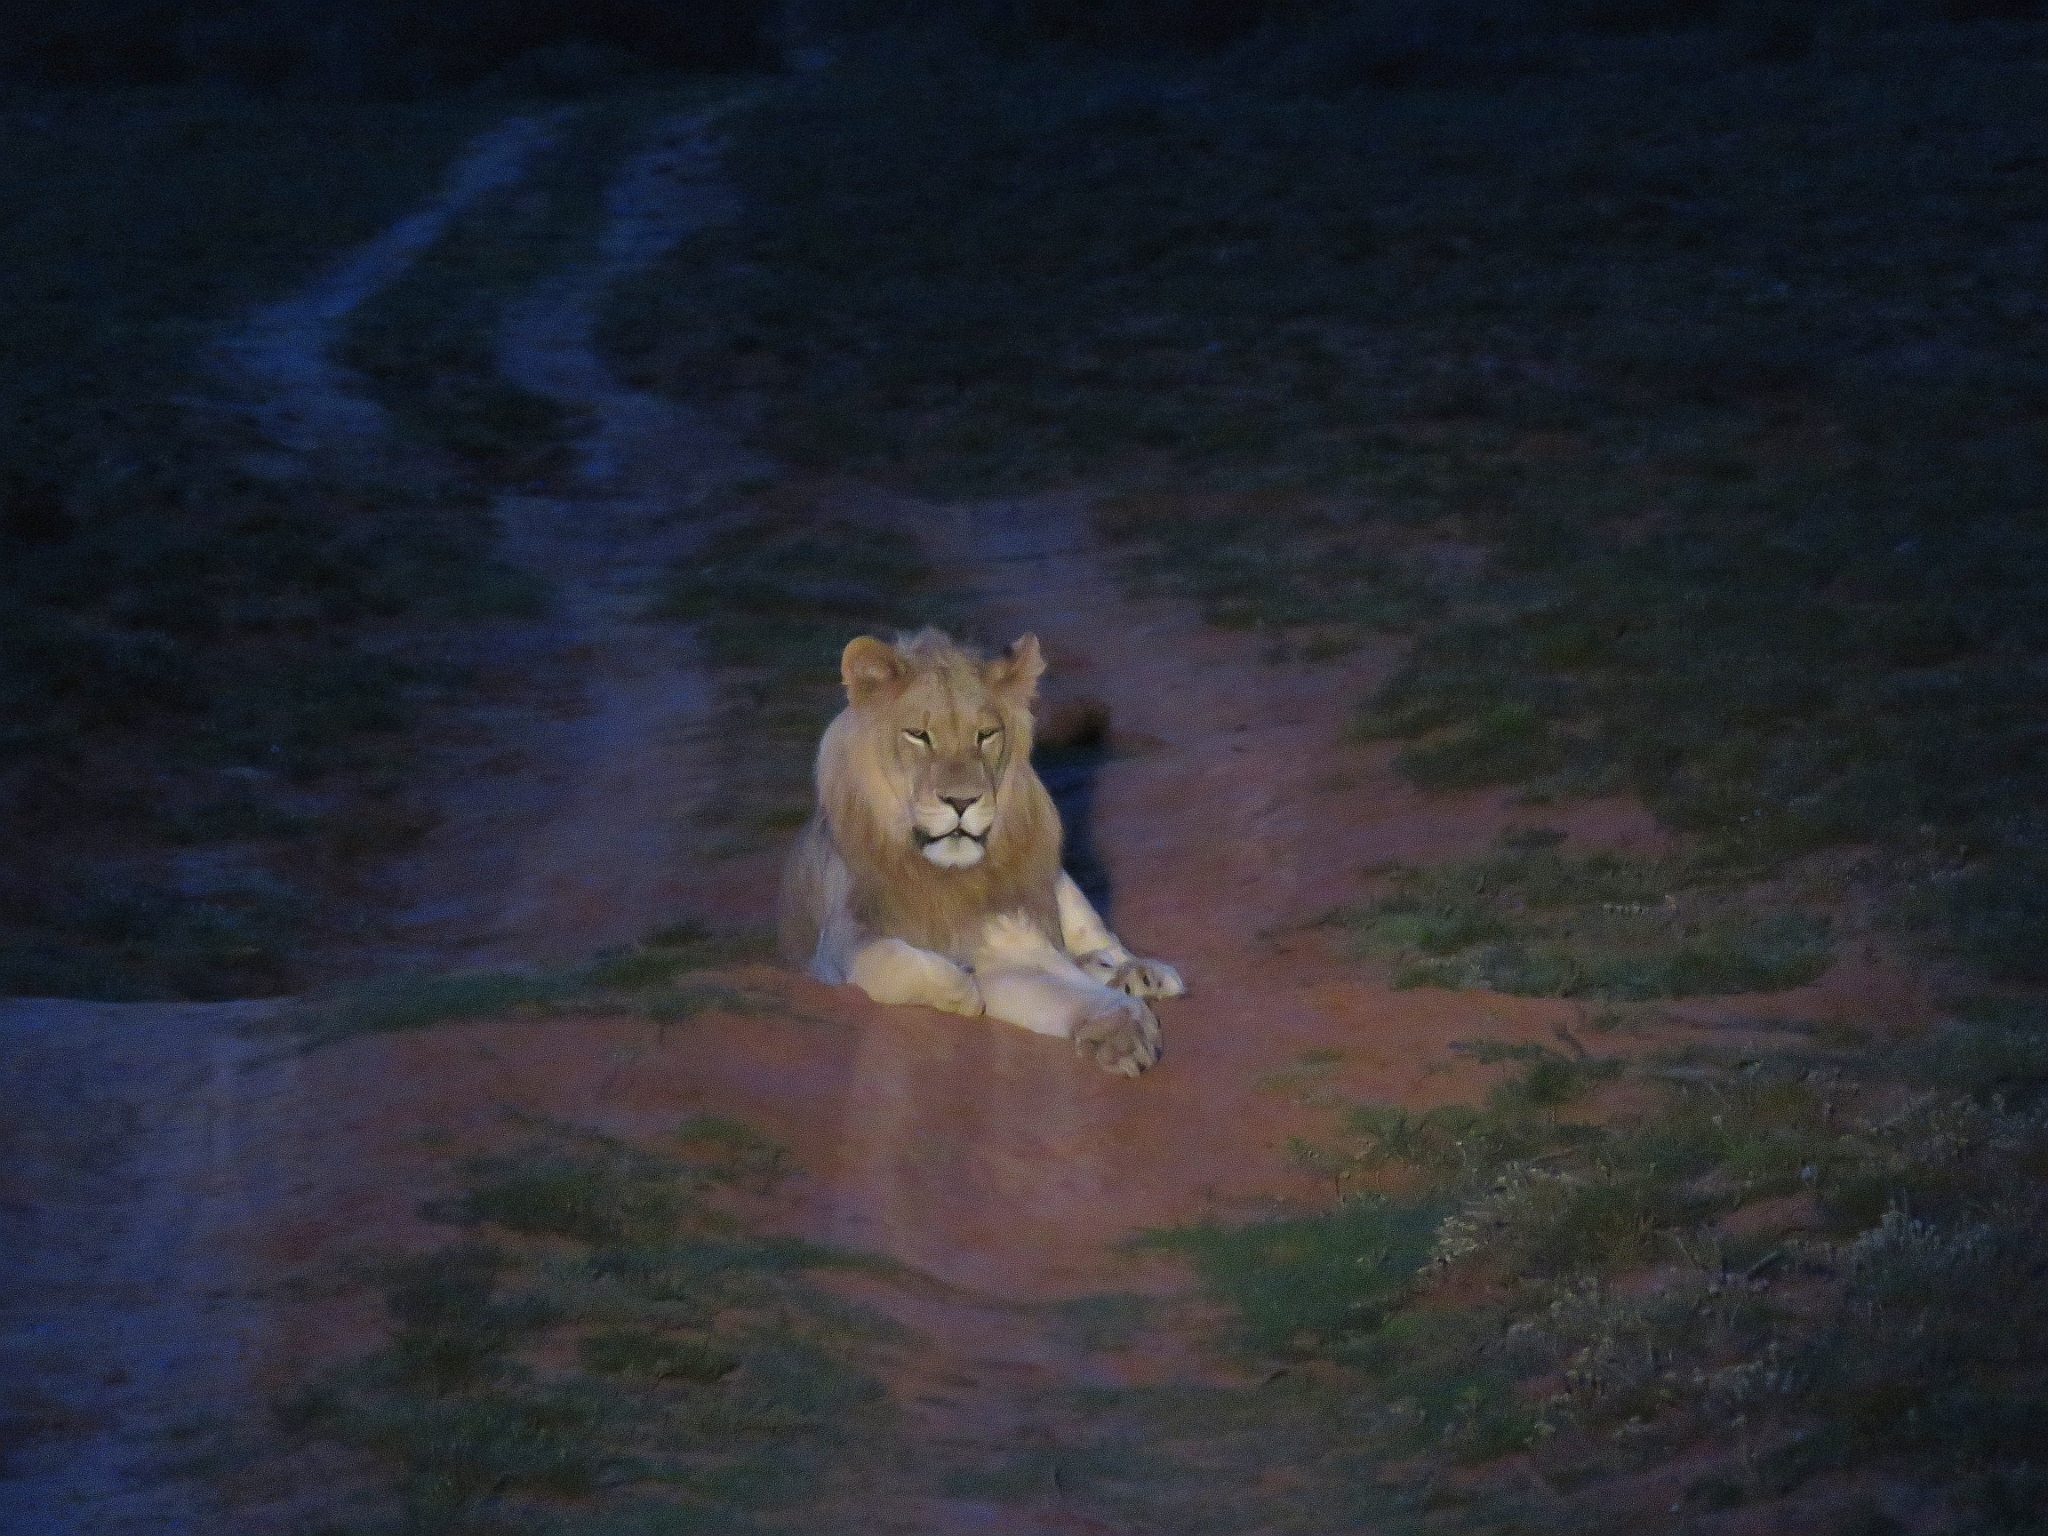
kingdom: Animalia
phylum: Chordata
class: Mammalia
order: Carnivora
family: Felidae
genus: Panthera
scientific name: Panthera leo
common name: Lion
